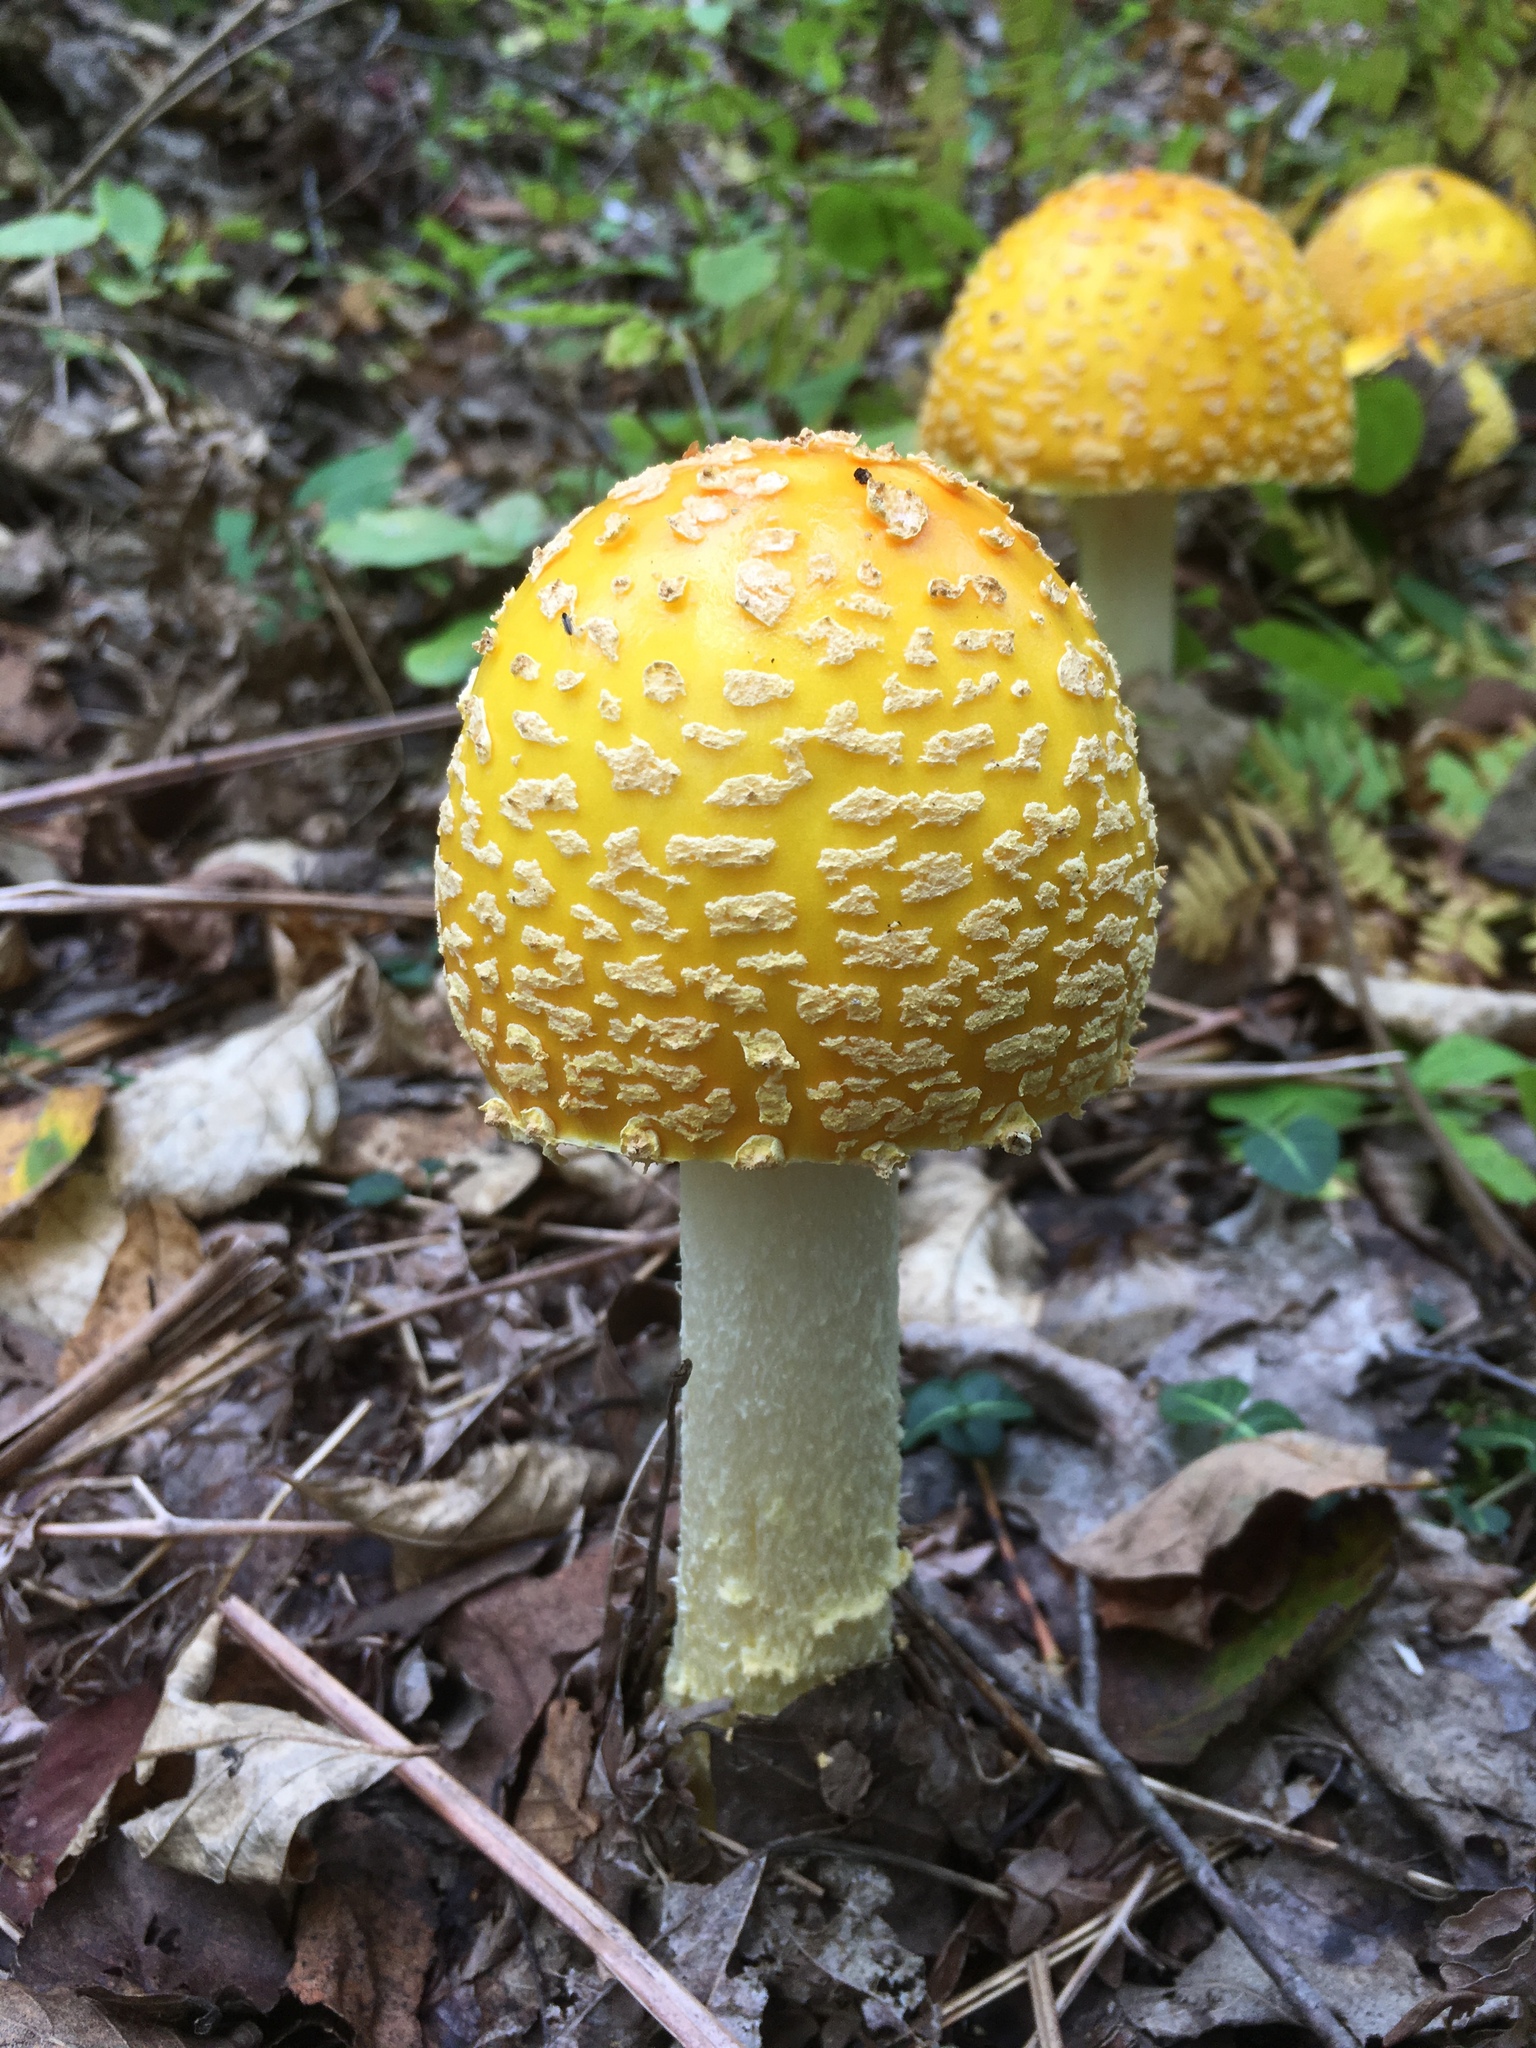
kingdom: Fungi
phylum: Basidiomycota
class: Agaricomycetes
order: Agaricales
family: Amanitaceae
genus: Amanita
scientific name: Amanita muscaria
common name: Fly agaric
